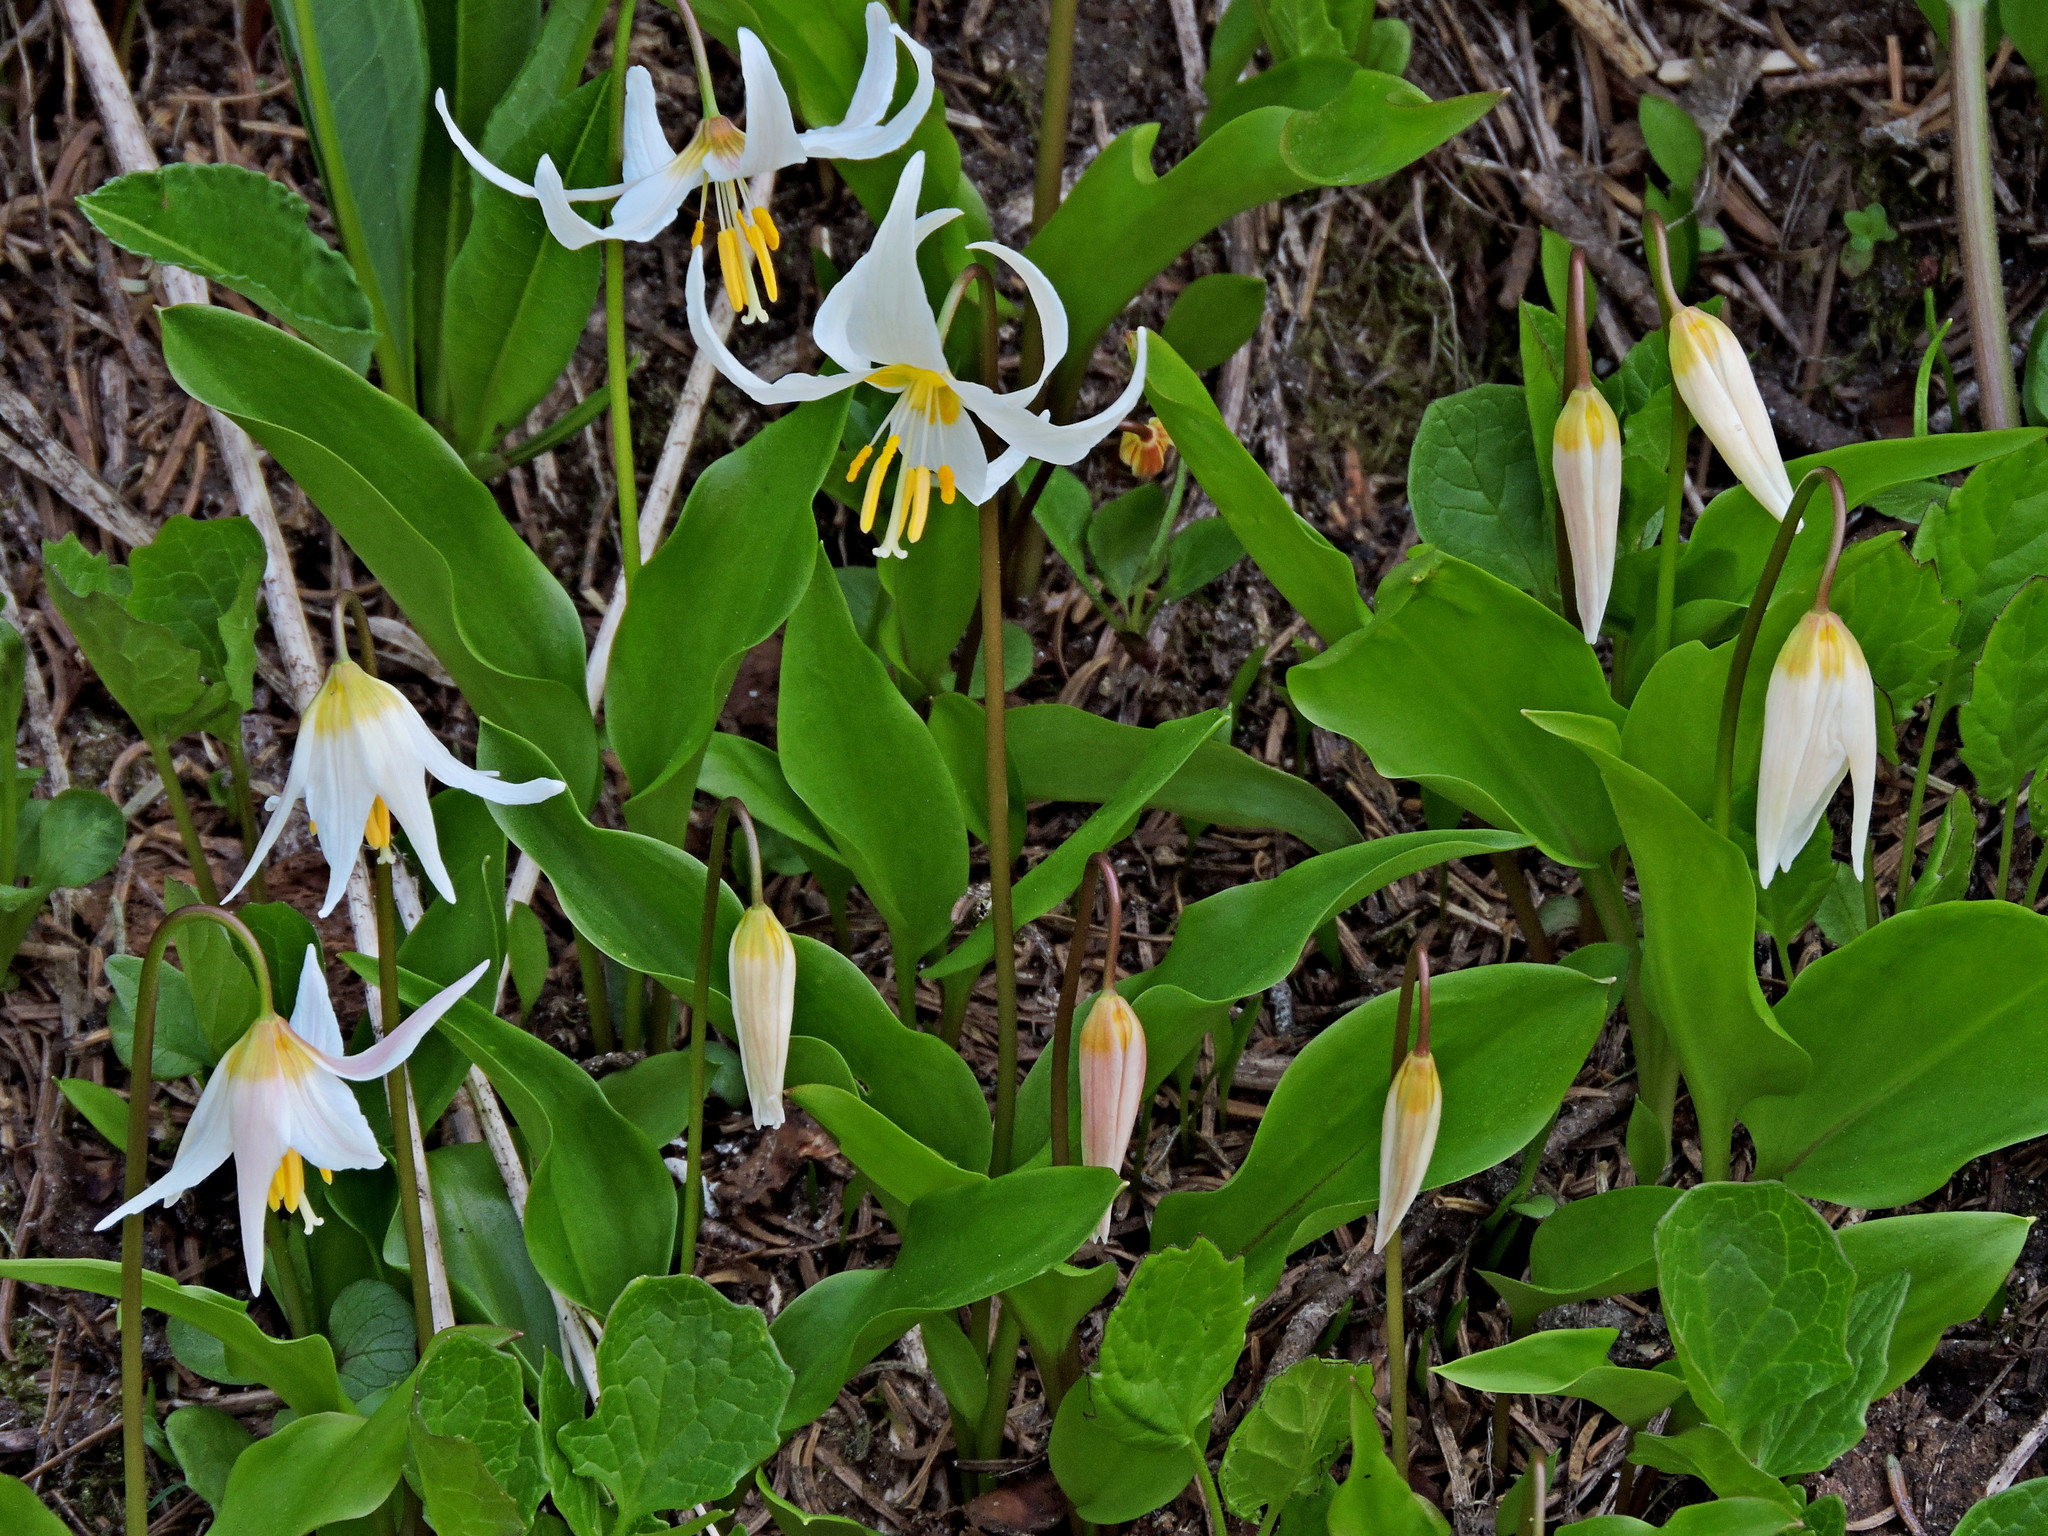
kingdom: Plantae
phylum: Tracheophyta
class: Liliopsida
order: Liliales
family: Liliaceae
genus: Erythronium
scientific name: Erythronium montanum
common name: Avalanche lily
